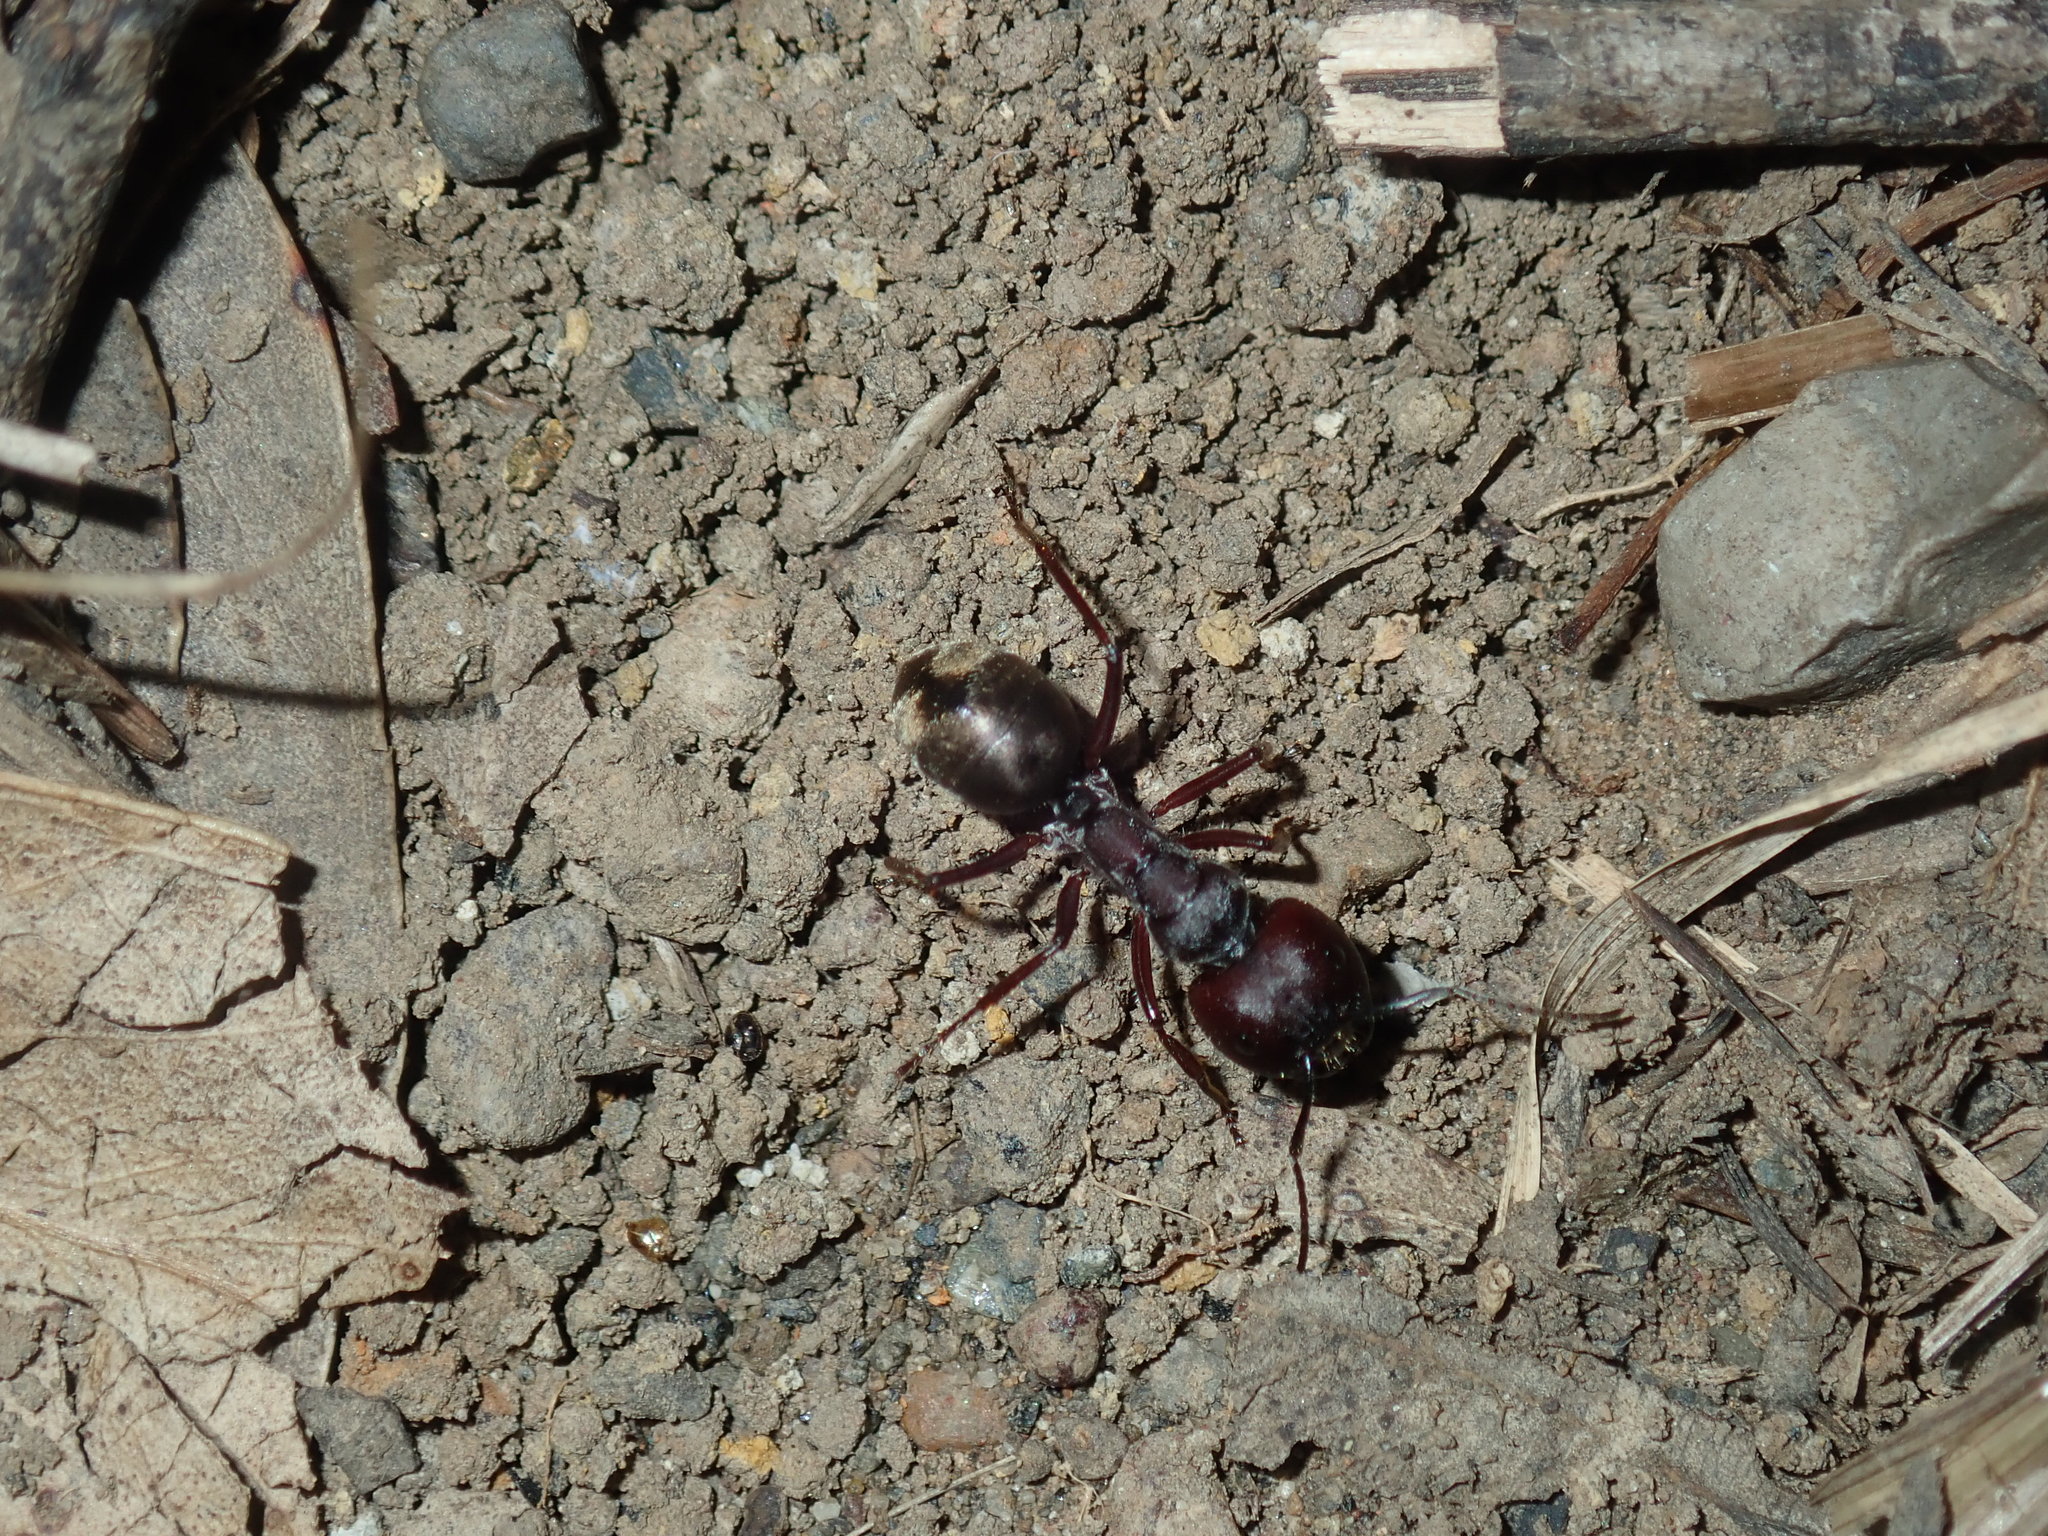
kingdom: Animalia
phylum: Arthropoda
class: Insecta
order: Hymenoptera
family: Formicidae
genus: Camponotus
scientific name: Camponotus suffusus
